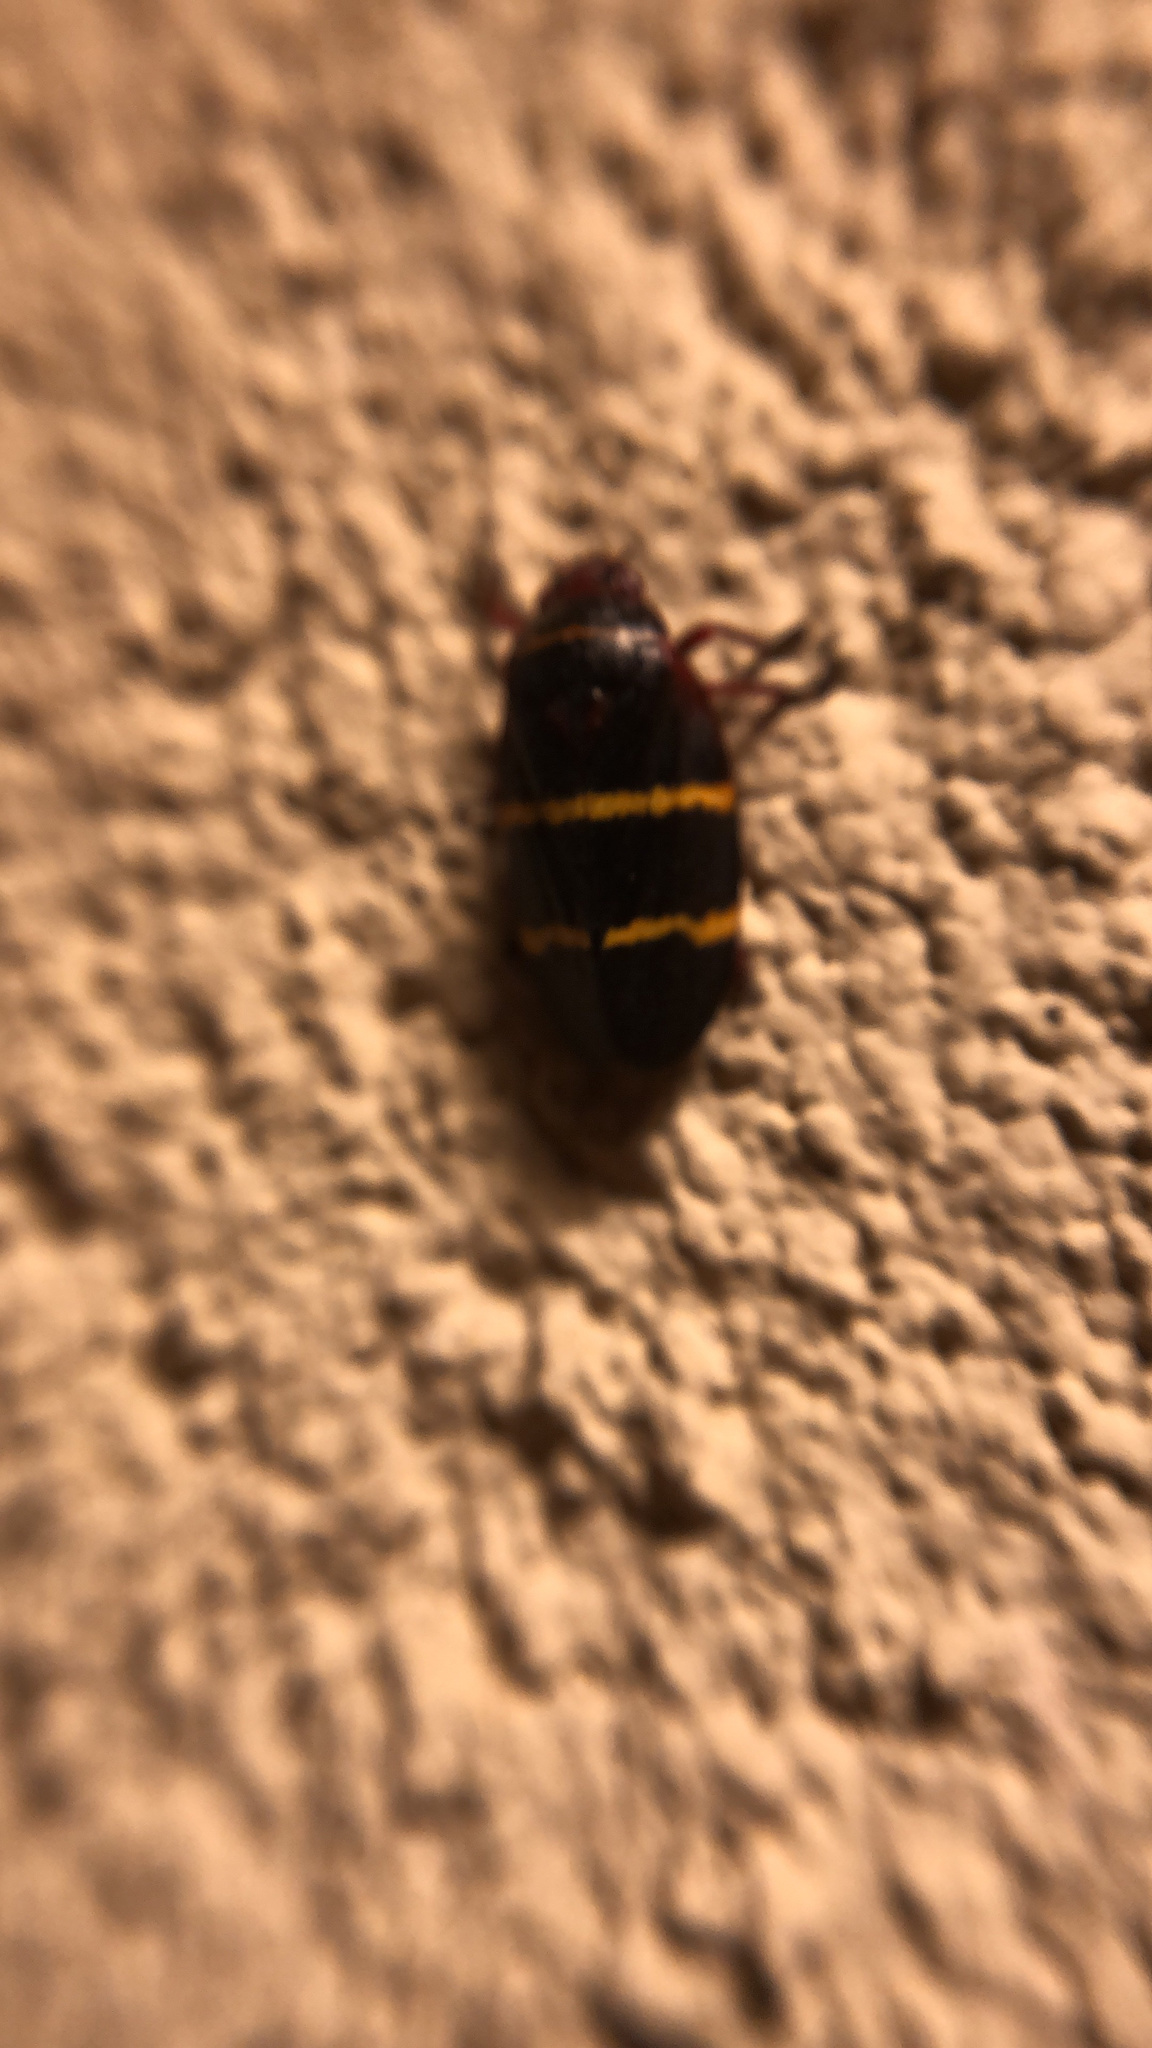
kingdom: Animalia
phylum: Arthropoda
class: Insecta
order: Hemiptera
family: Cercopidae
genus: Prosapia
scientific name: Prosapia bicincta
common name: Twolined spittlebug
